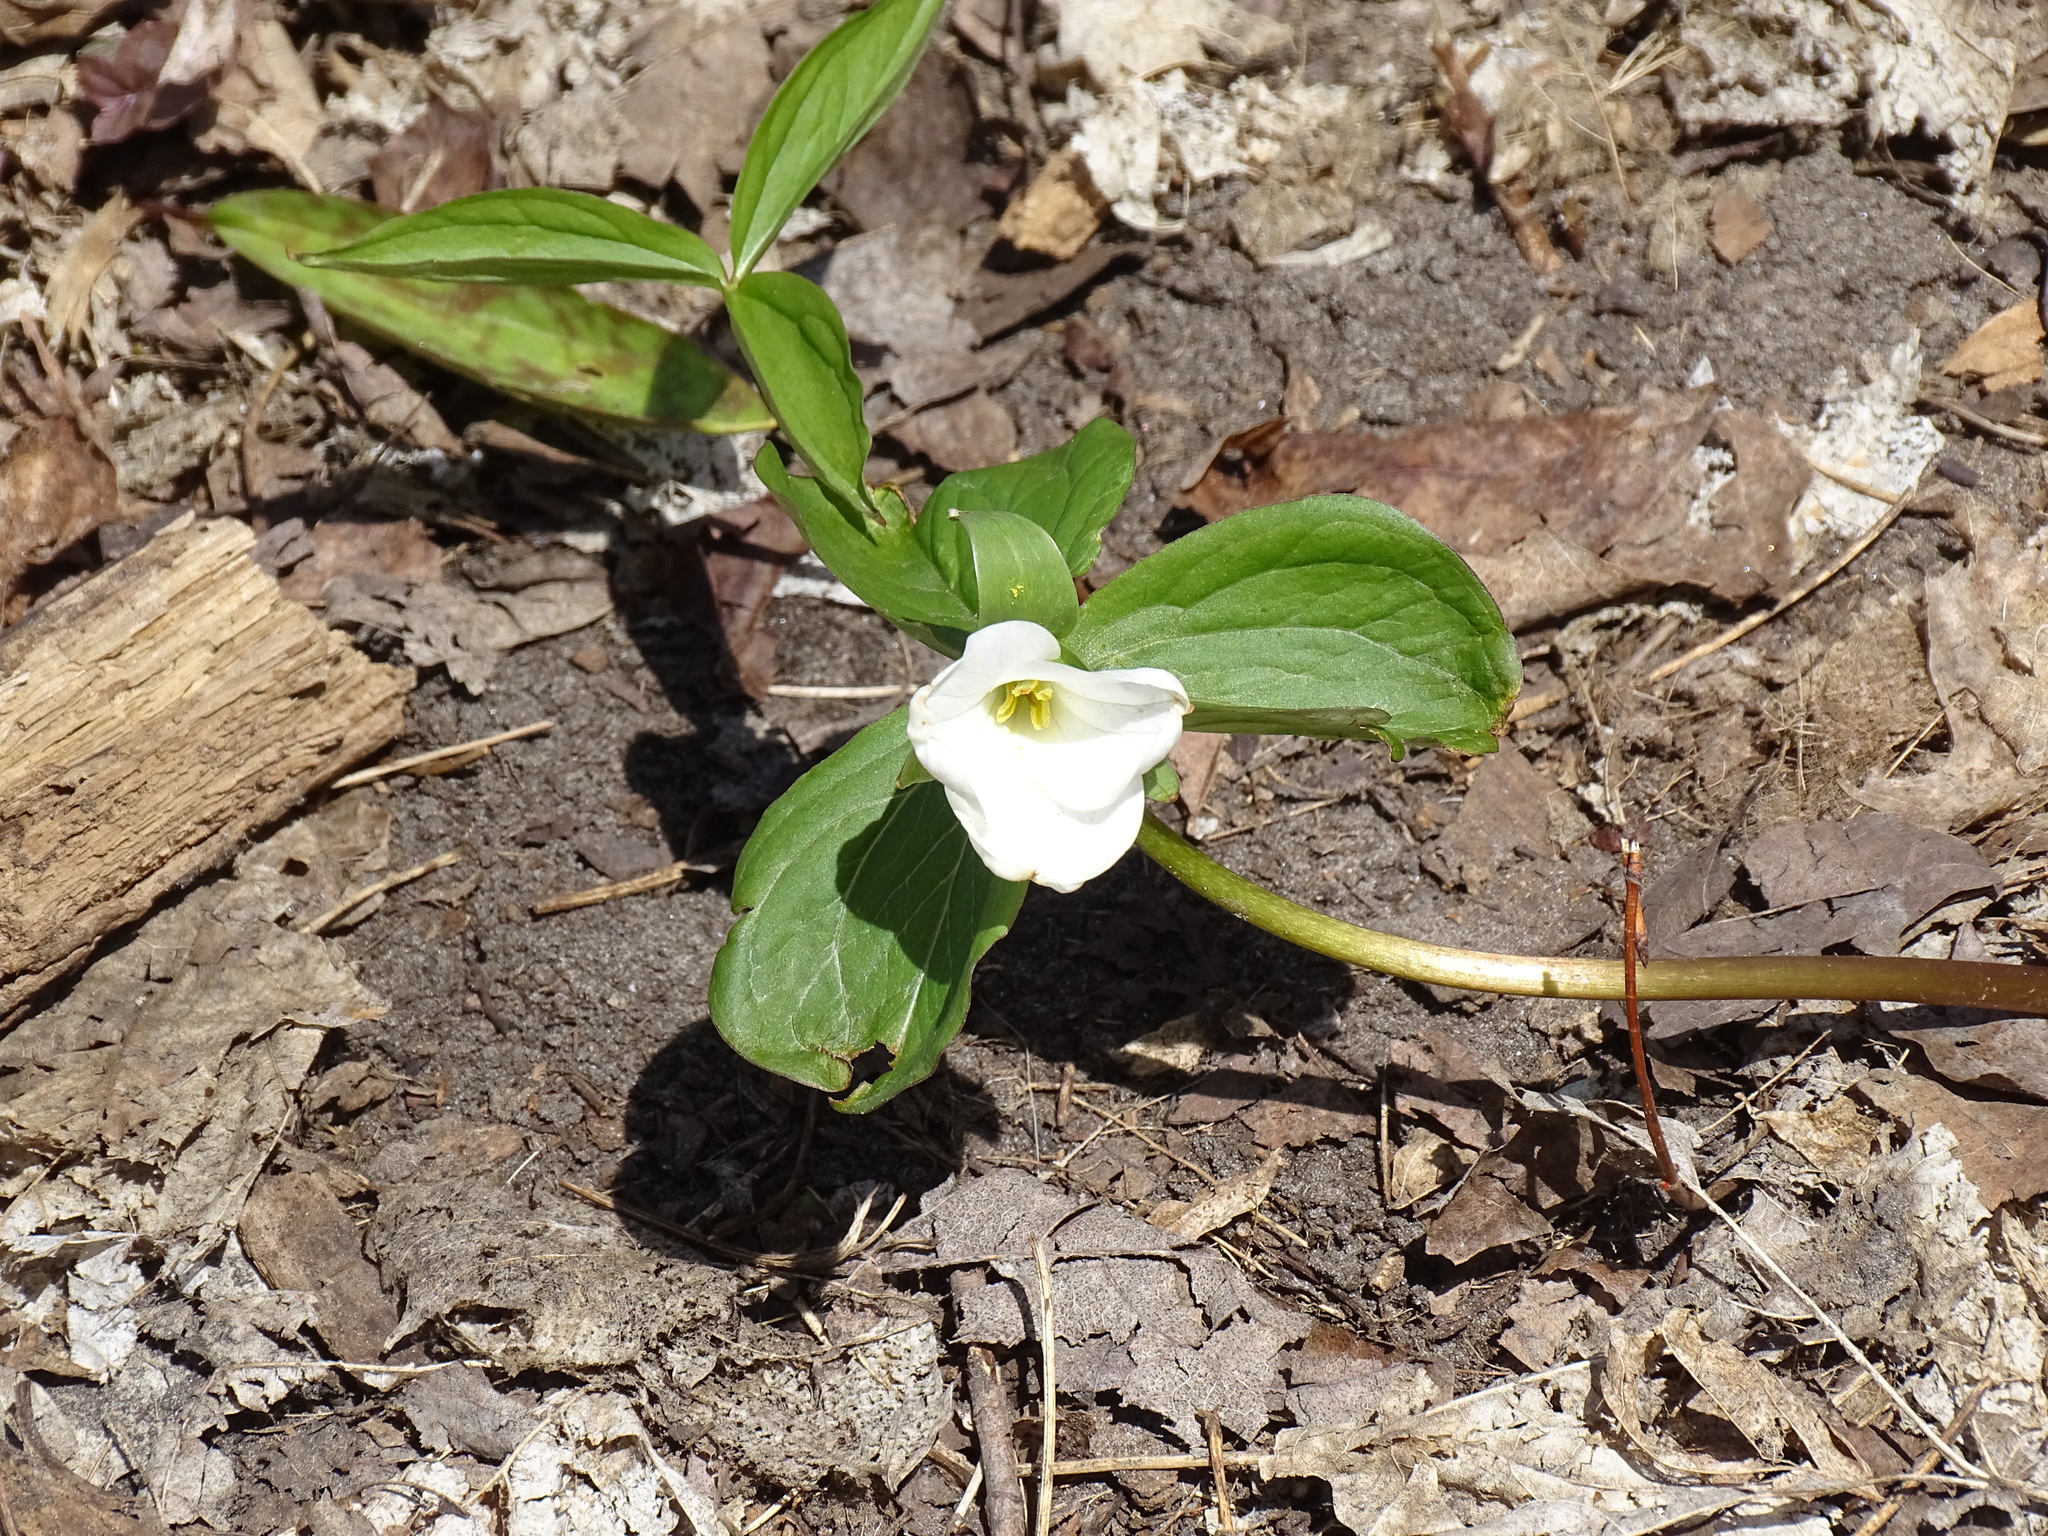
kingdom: Plantae
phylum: Tracheophyta
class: Liliopsida
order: Liliales
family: Melanthiaceae
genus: Trillium
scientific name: Trillium grandiflorum
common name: Great white trillium
